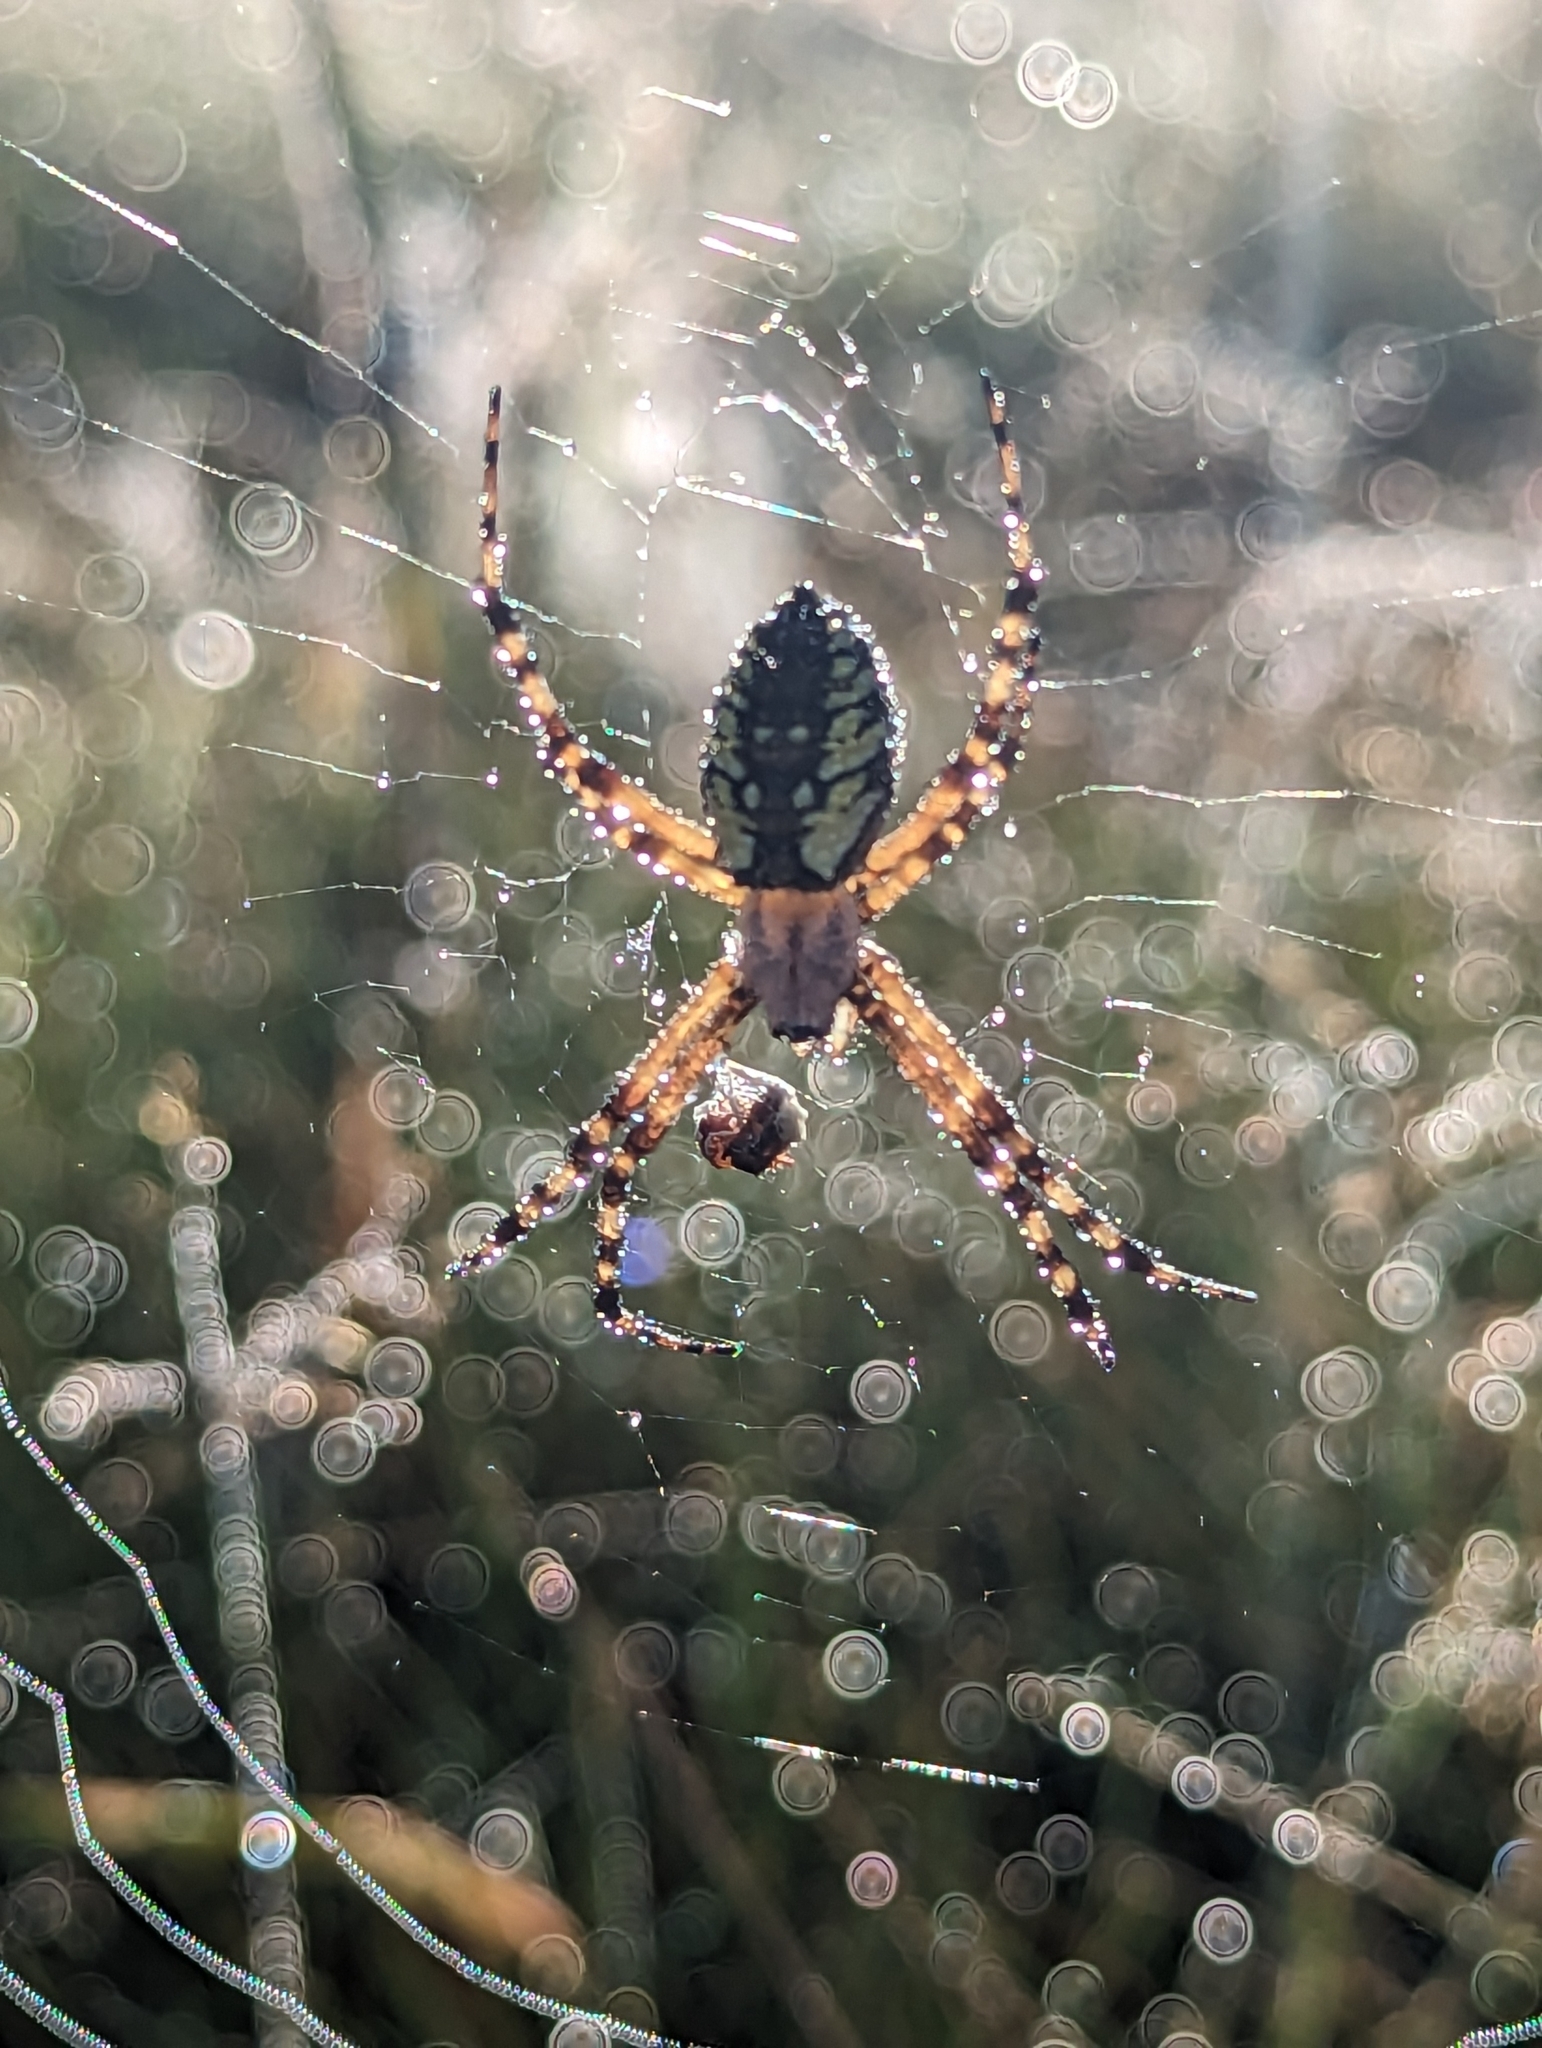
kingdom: Animalia
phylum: Arthropoda
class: Arachnida
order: Araneae
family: Araneidae
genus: Argiope
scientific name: Argiope aurantia
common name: Orb weavers
